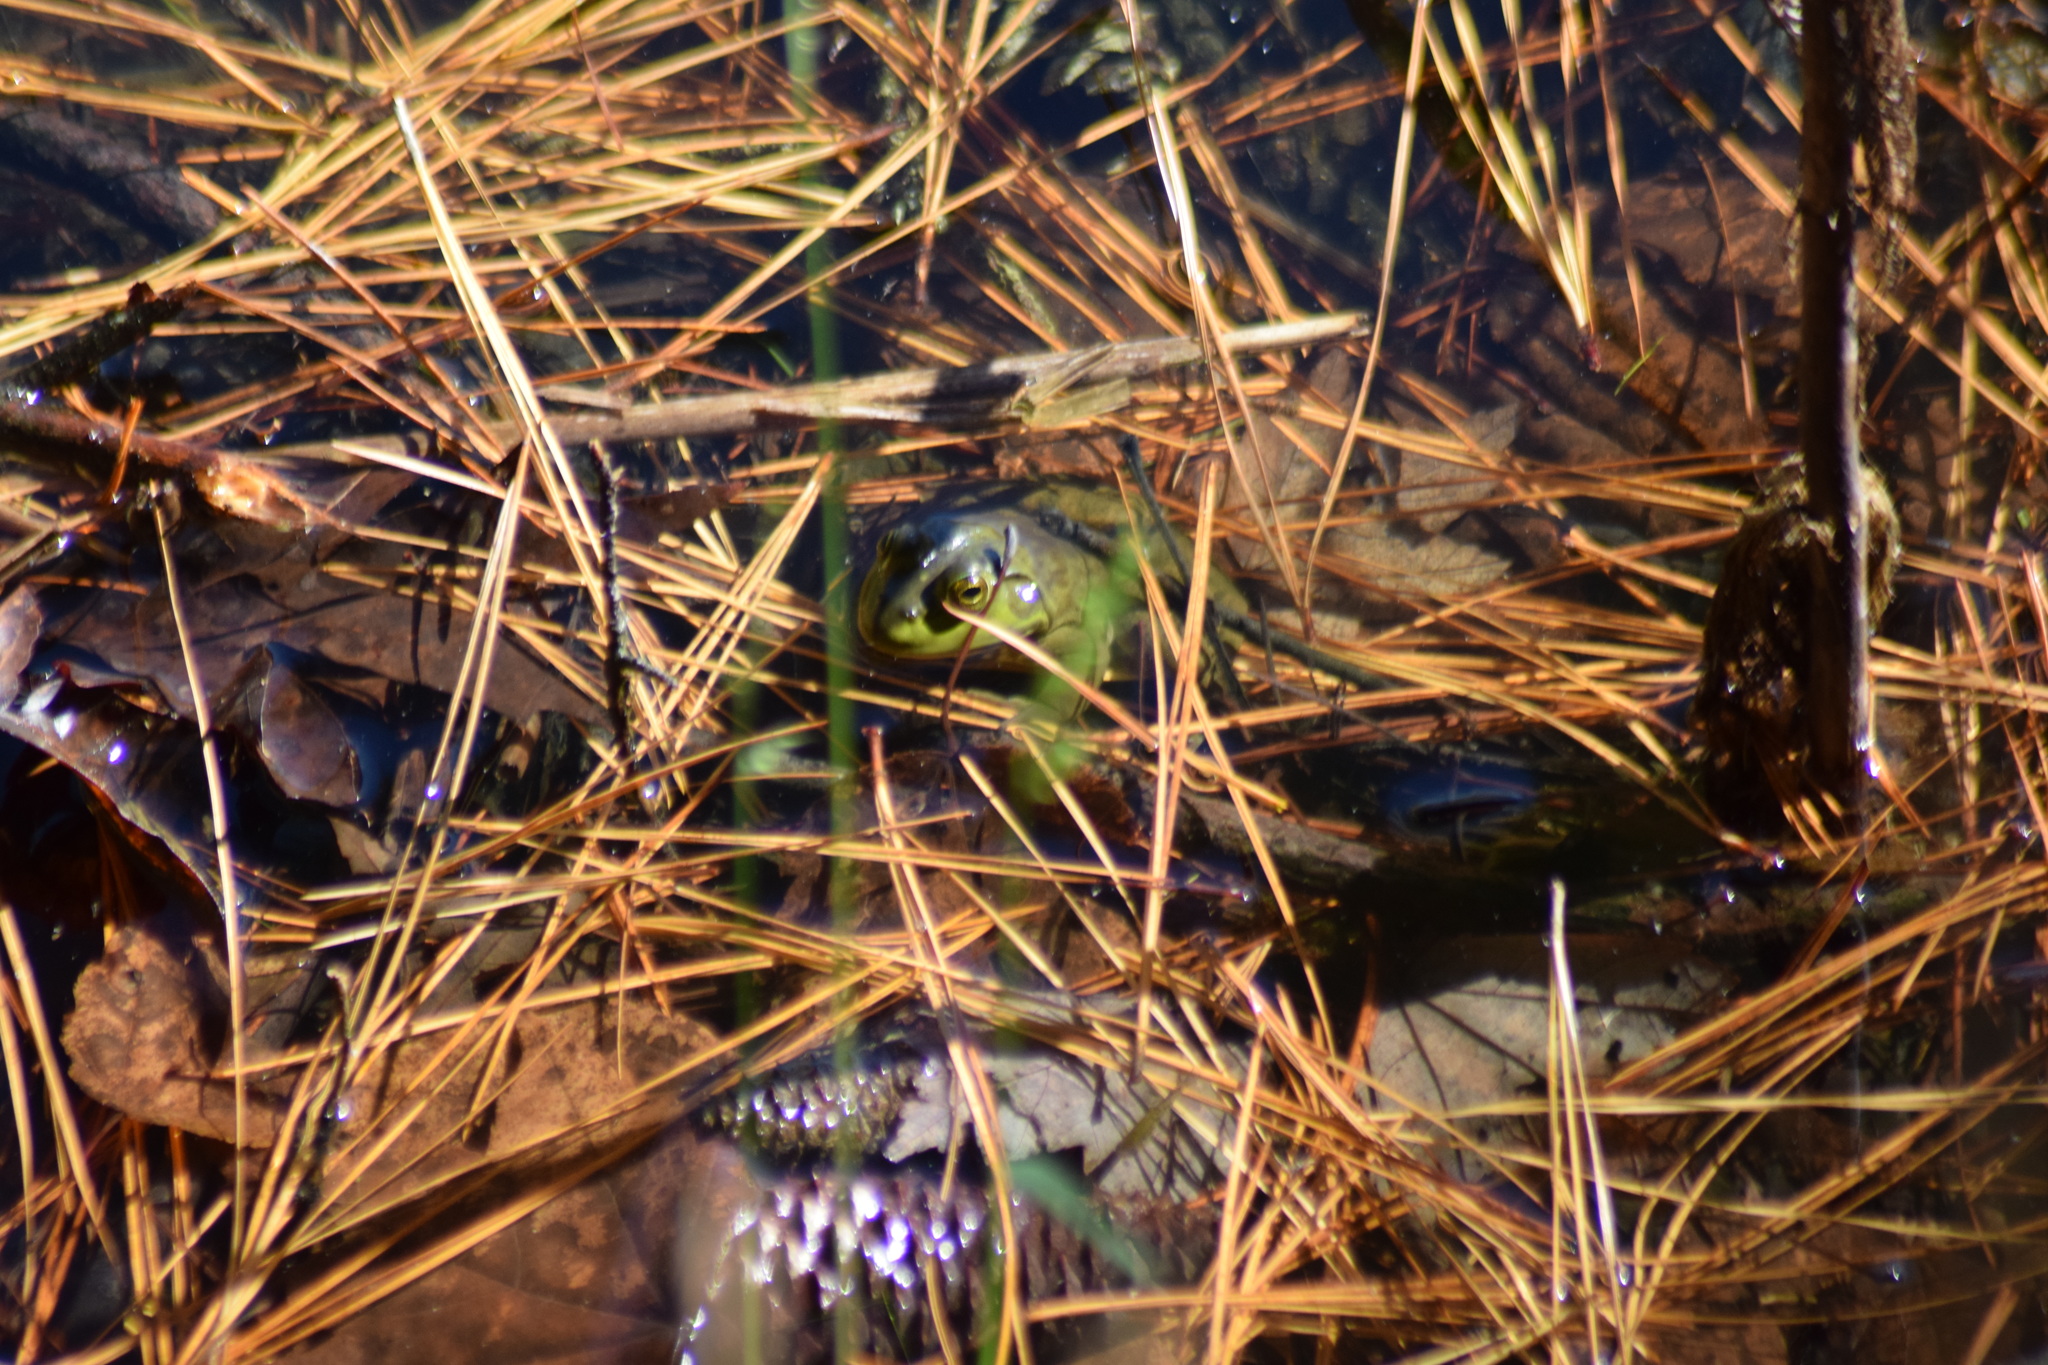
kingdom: Animalia
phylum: Chordata
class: Amphibia
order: Anura
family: Ranidae
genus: Lithobates
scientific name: Lithobates catesbeianus
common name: American bullfrog
